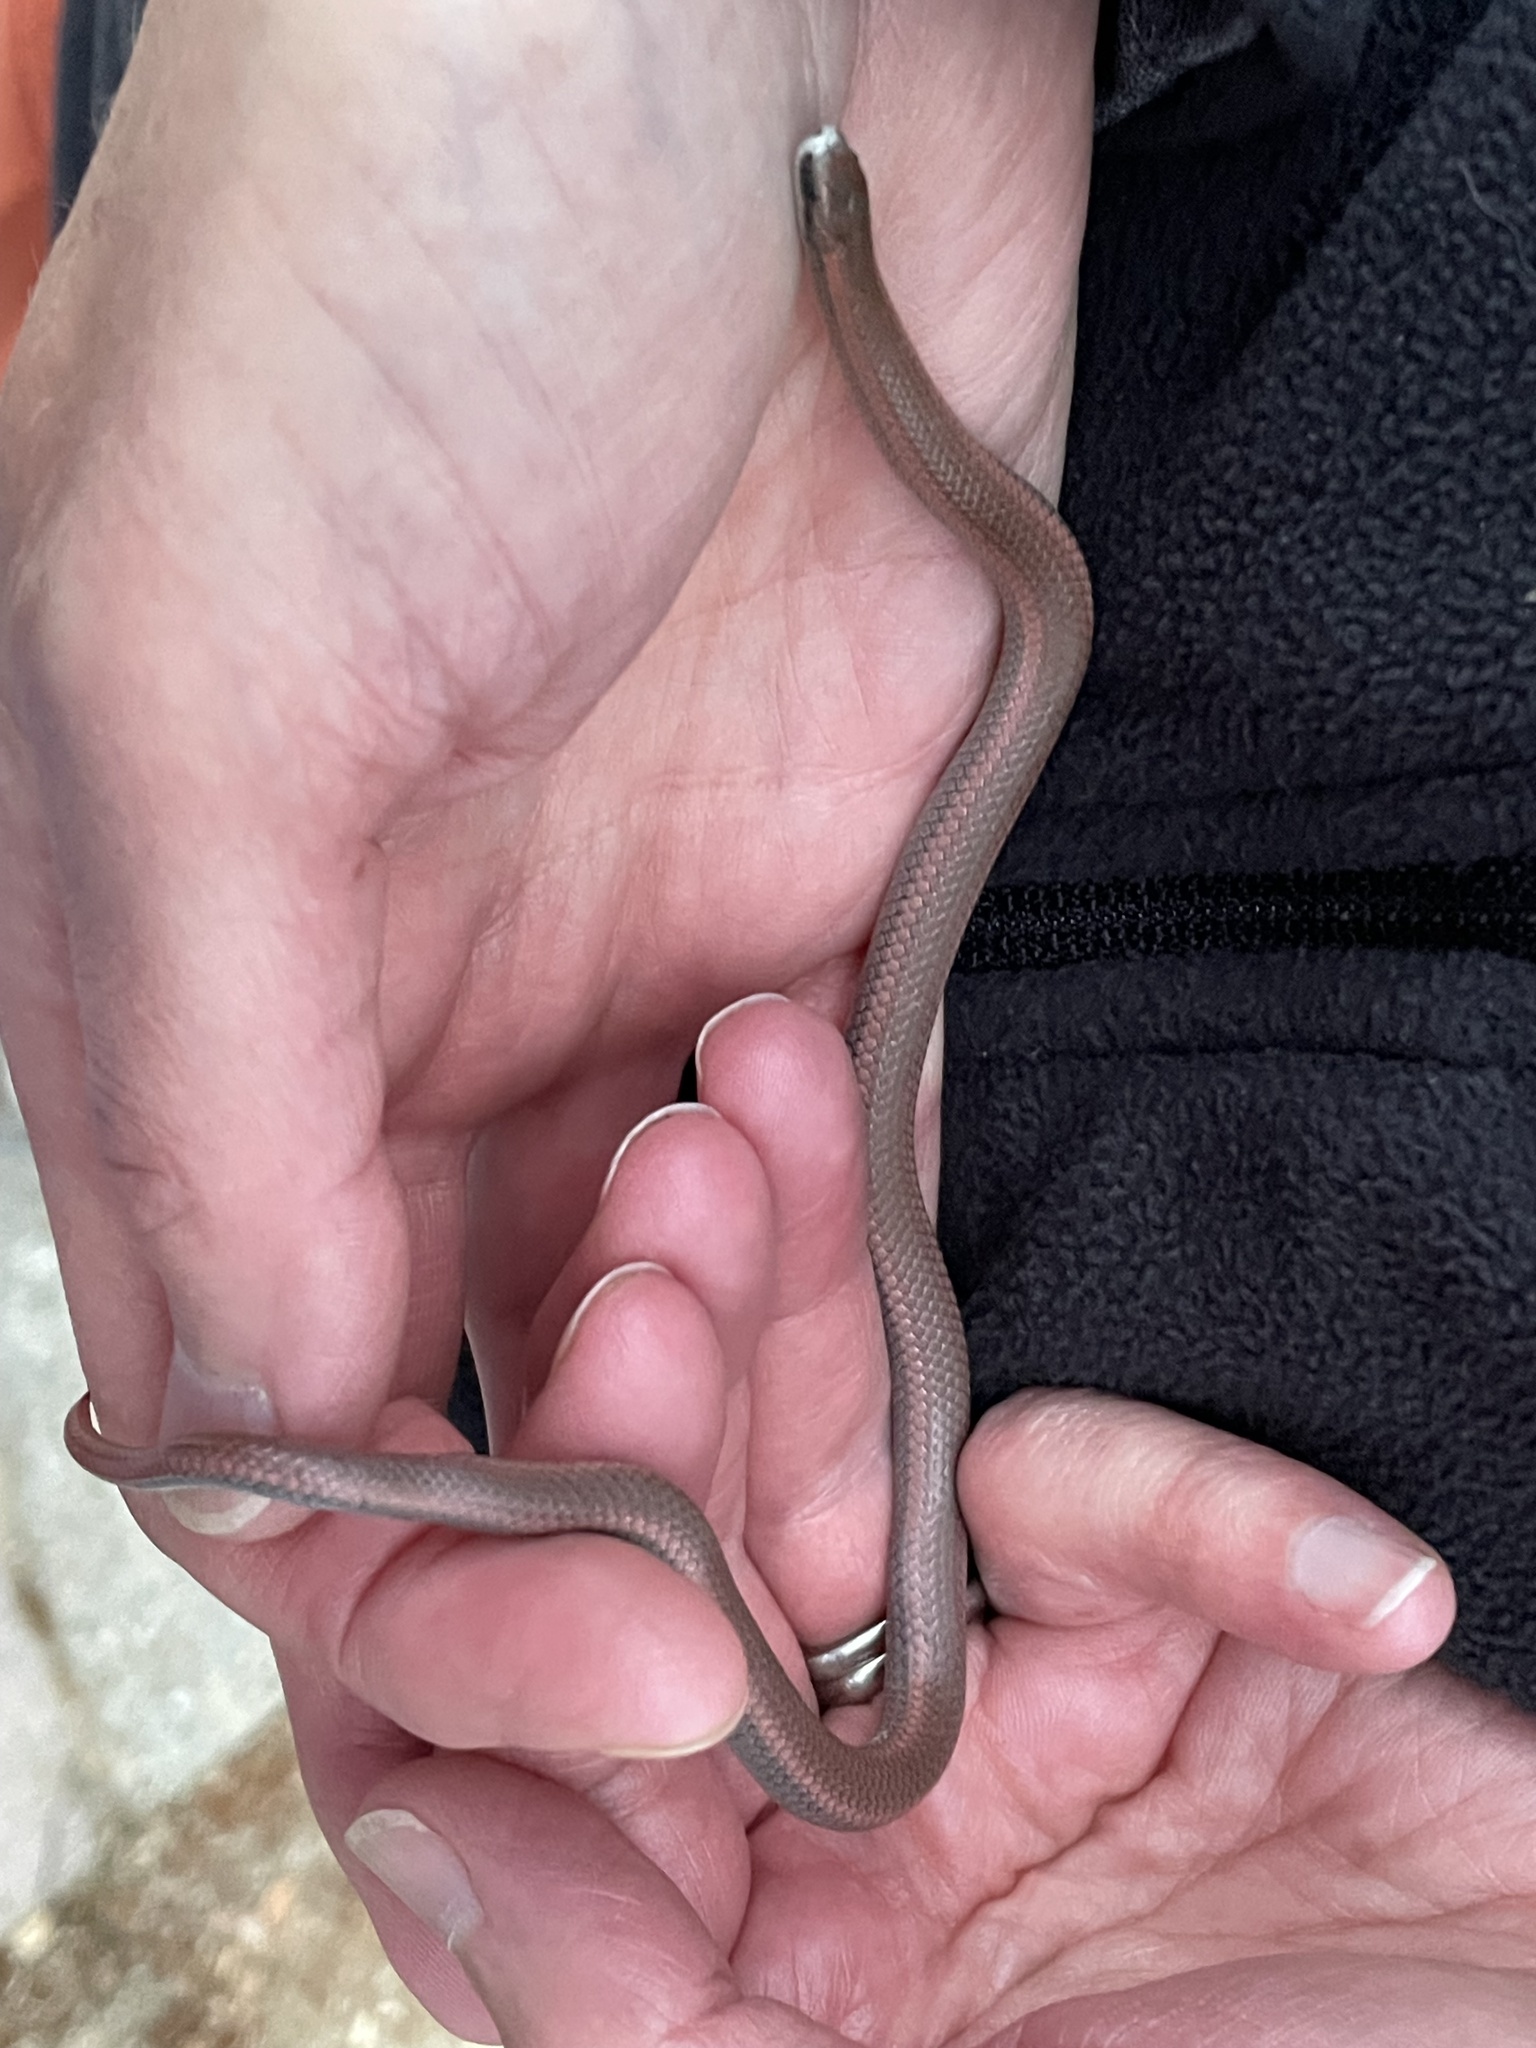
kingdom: Animalia
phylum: Chordata
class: Squamata
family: Colubridae
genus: Contia
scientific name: Contia tenuis
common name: Sharptail snake
